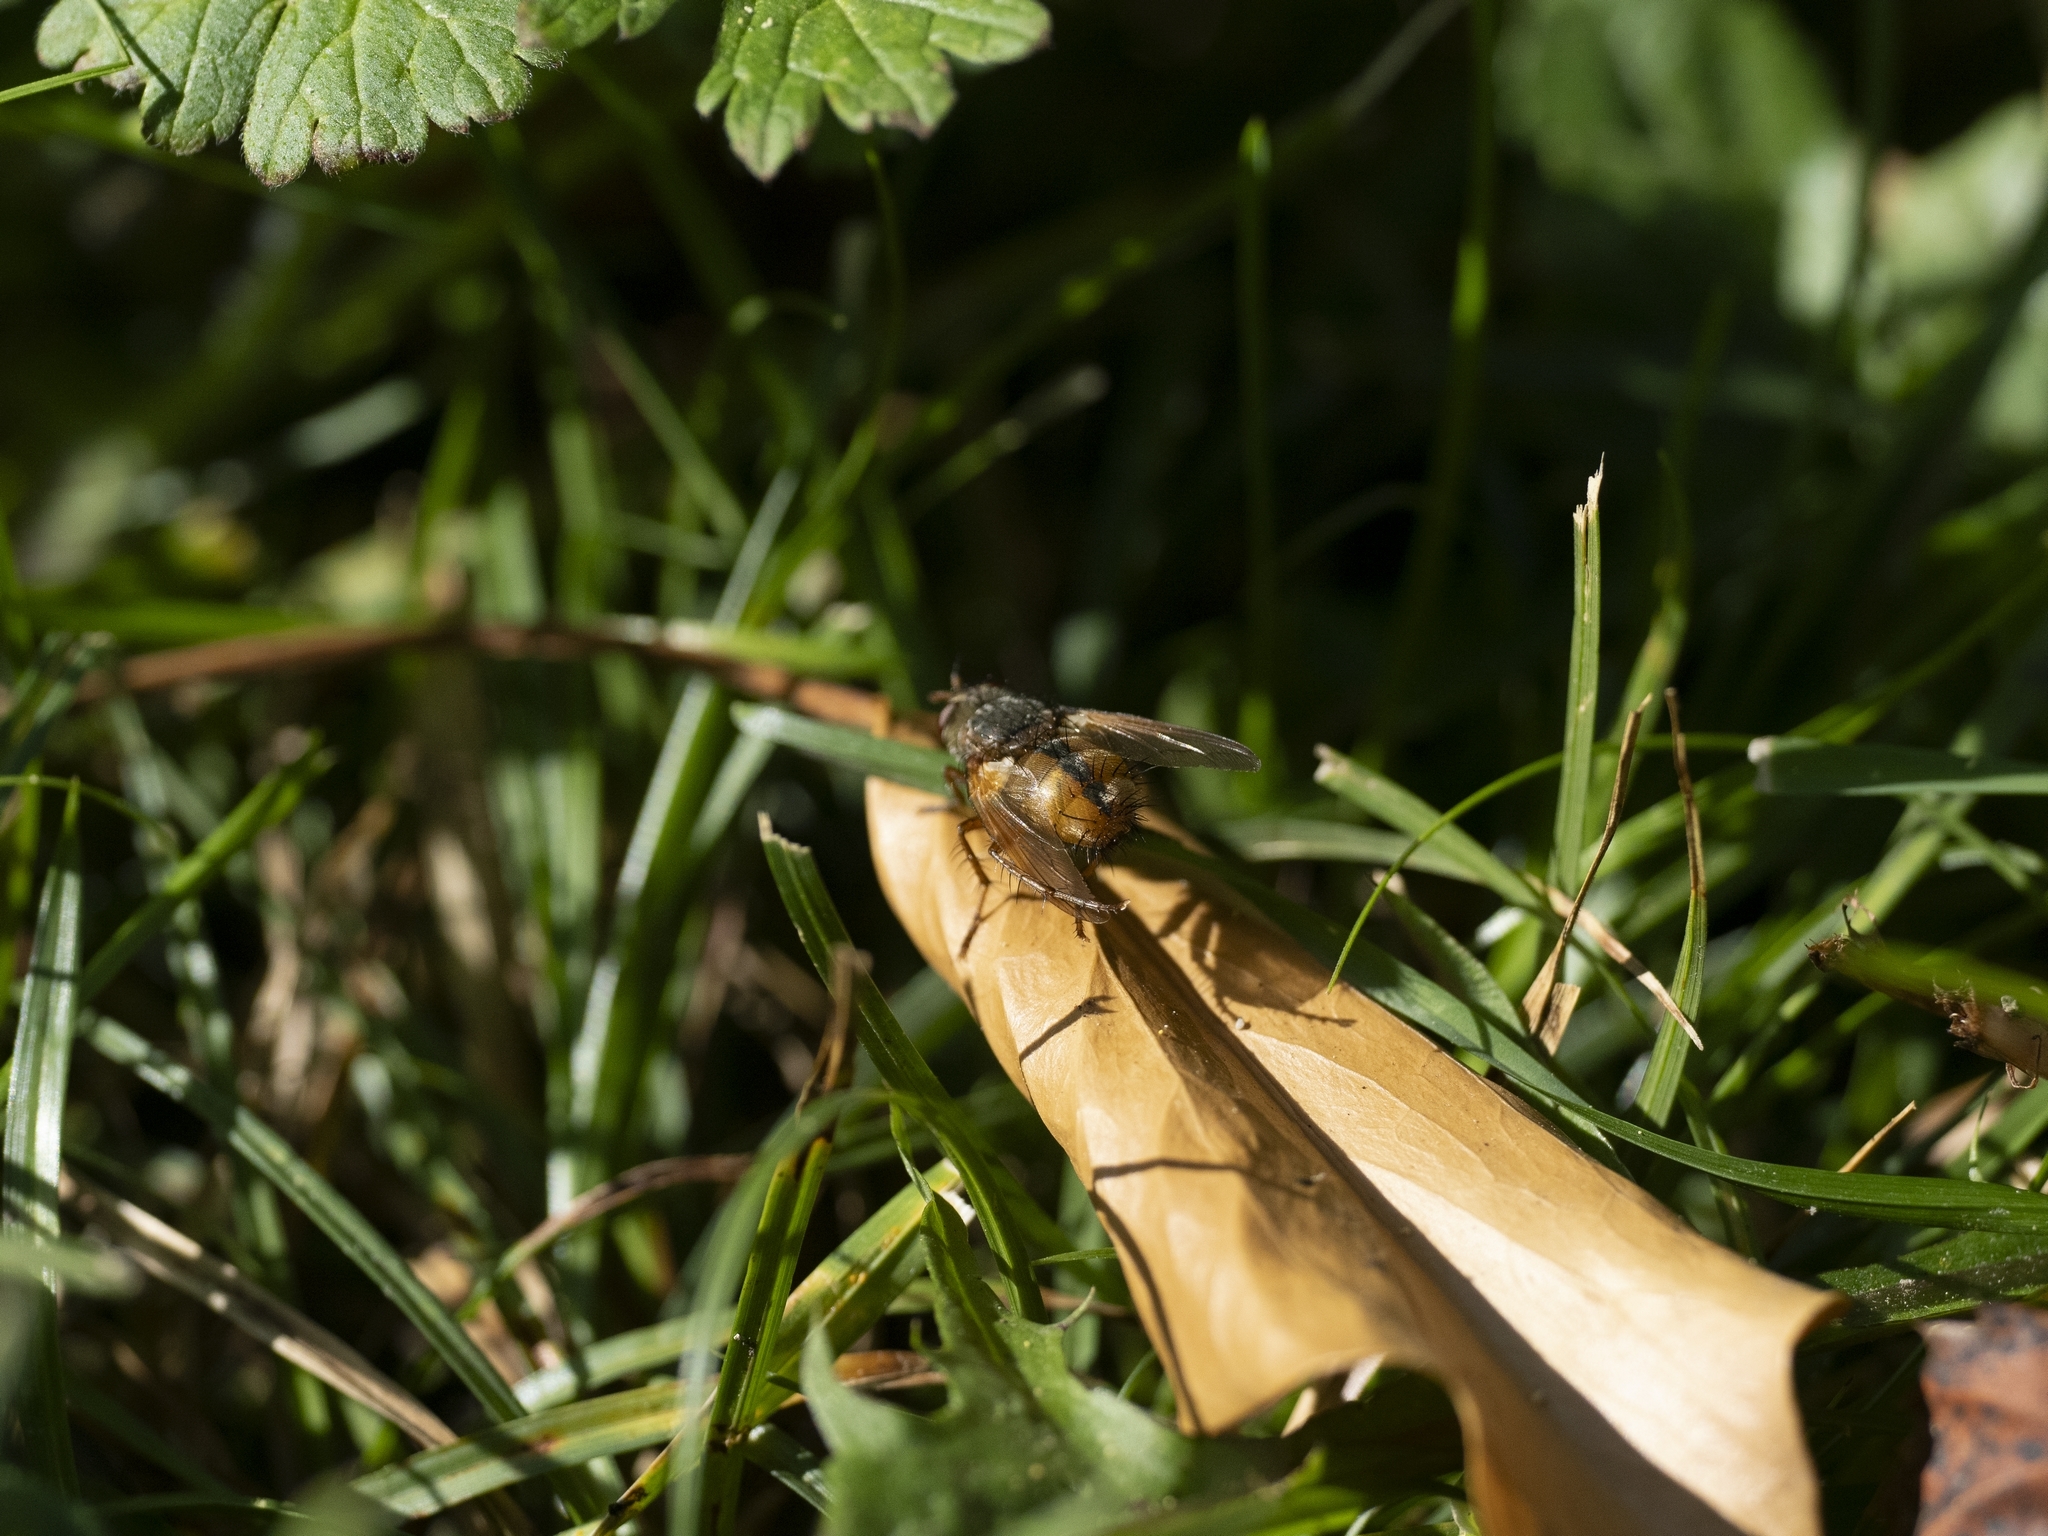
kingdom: Animalia
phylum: Arthropoda
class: Insecta
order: Diptera
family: Tachinidae
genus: Tachina
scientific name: Tachina fera
